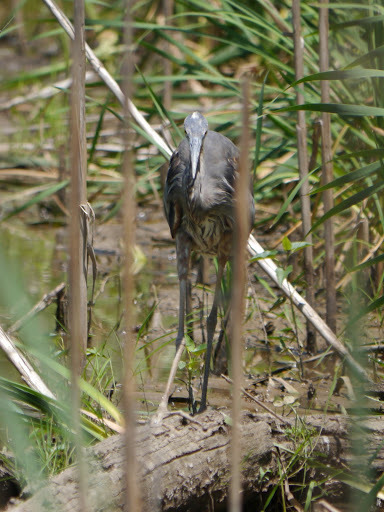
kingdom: Animalia
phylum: Chordata
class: Aves
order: Pelecaniformes
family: Ardeidae
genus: Ardea
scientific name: Ardea herodias
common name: Great blue heron
